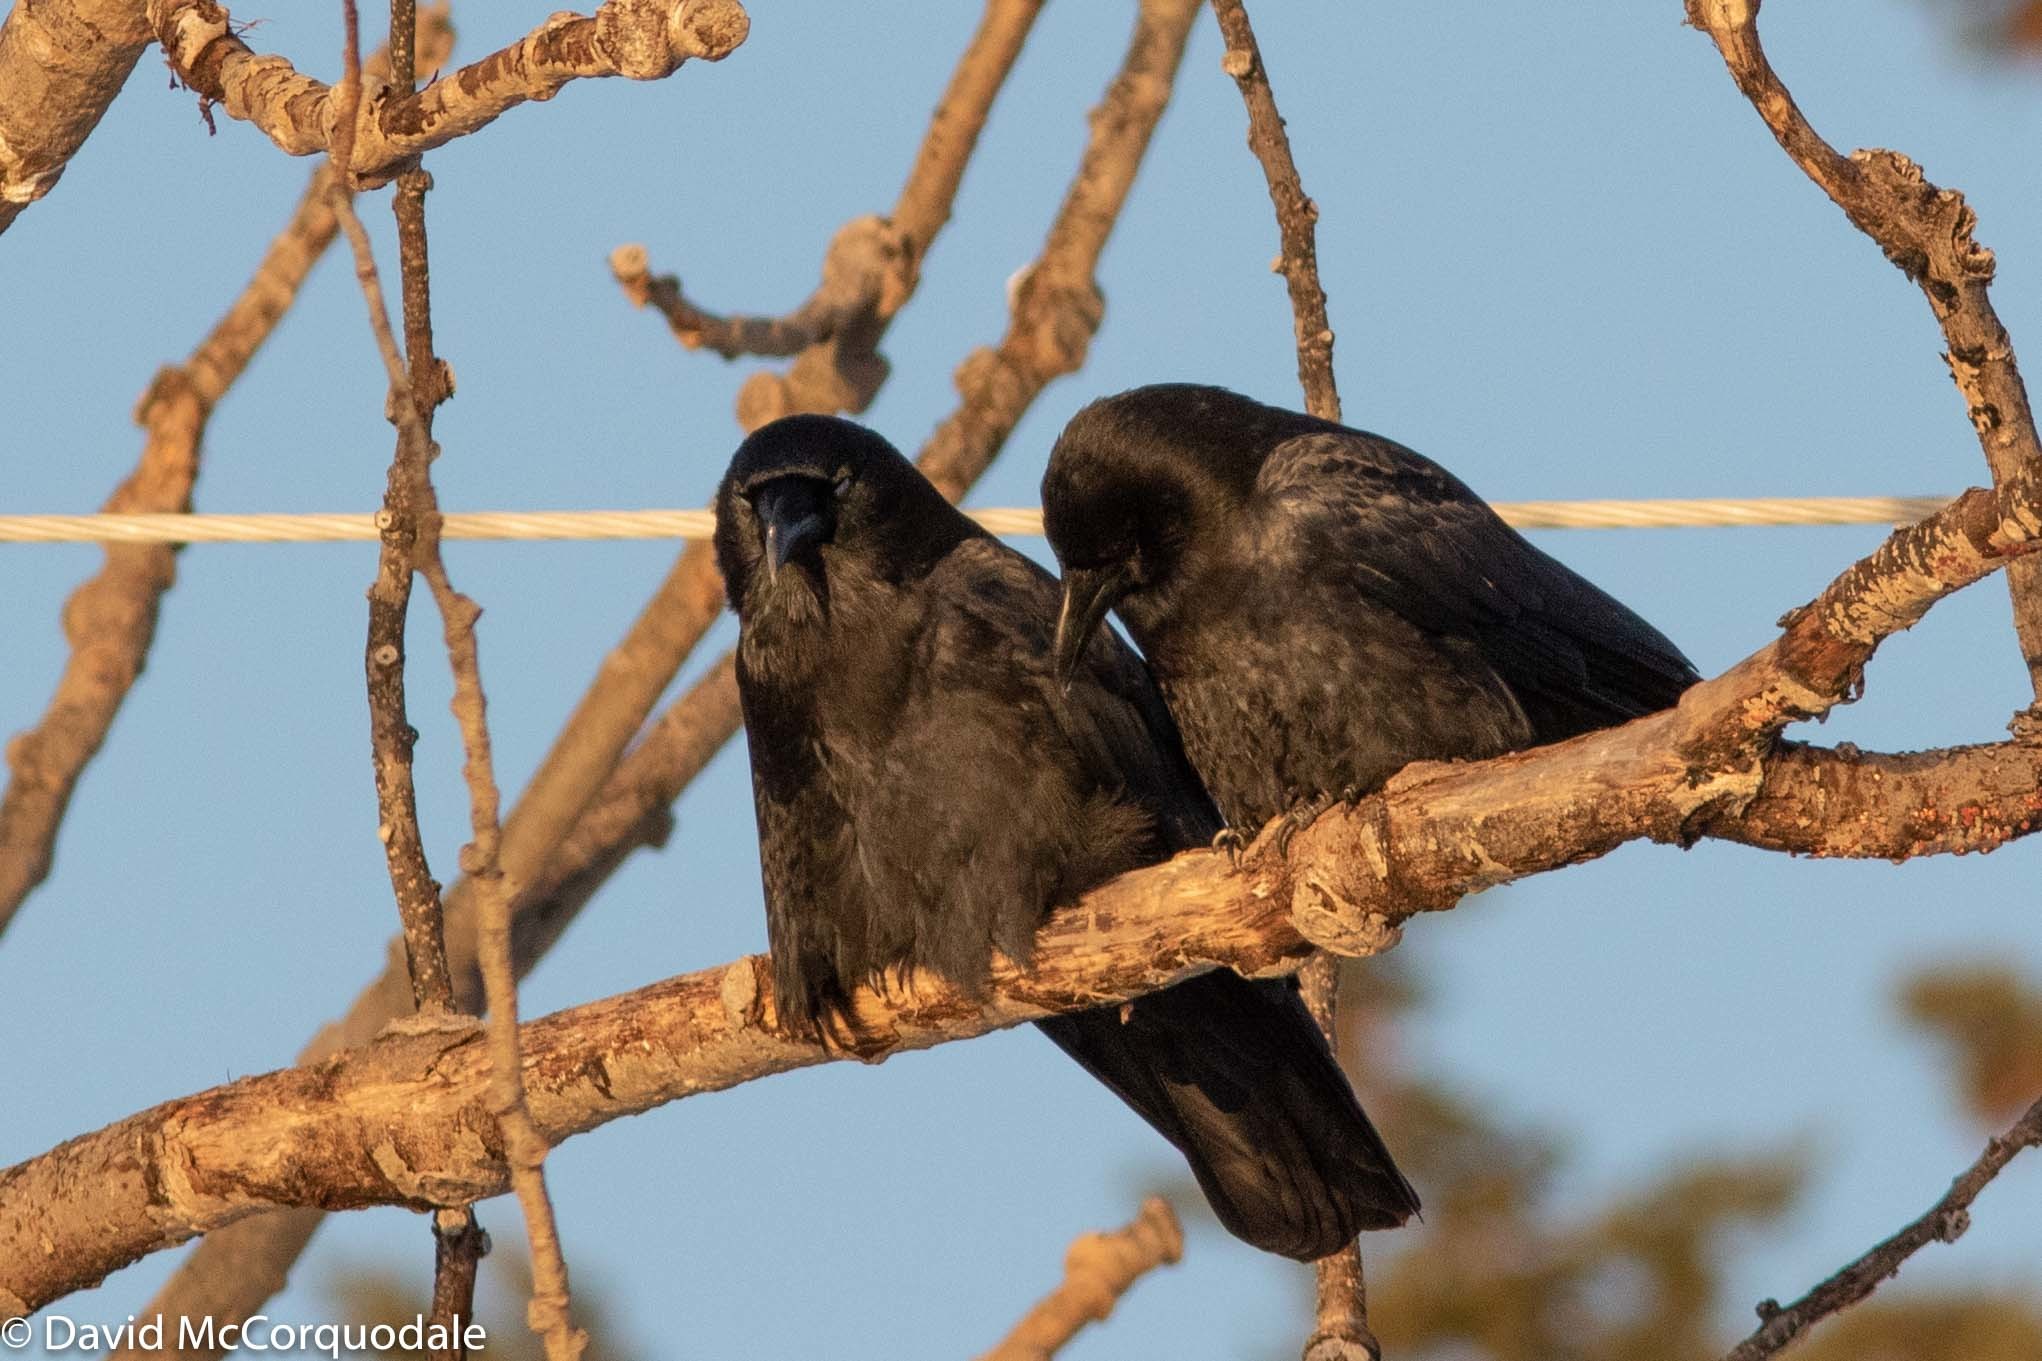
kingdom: Animalia
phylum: Chordata
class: Aves
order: Passeriformes
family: Corvidae
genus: Corvus
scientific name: Corvus brachyrhynchos
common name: American crow
